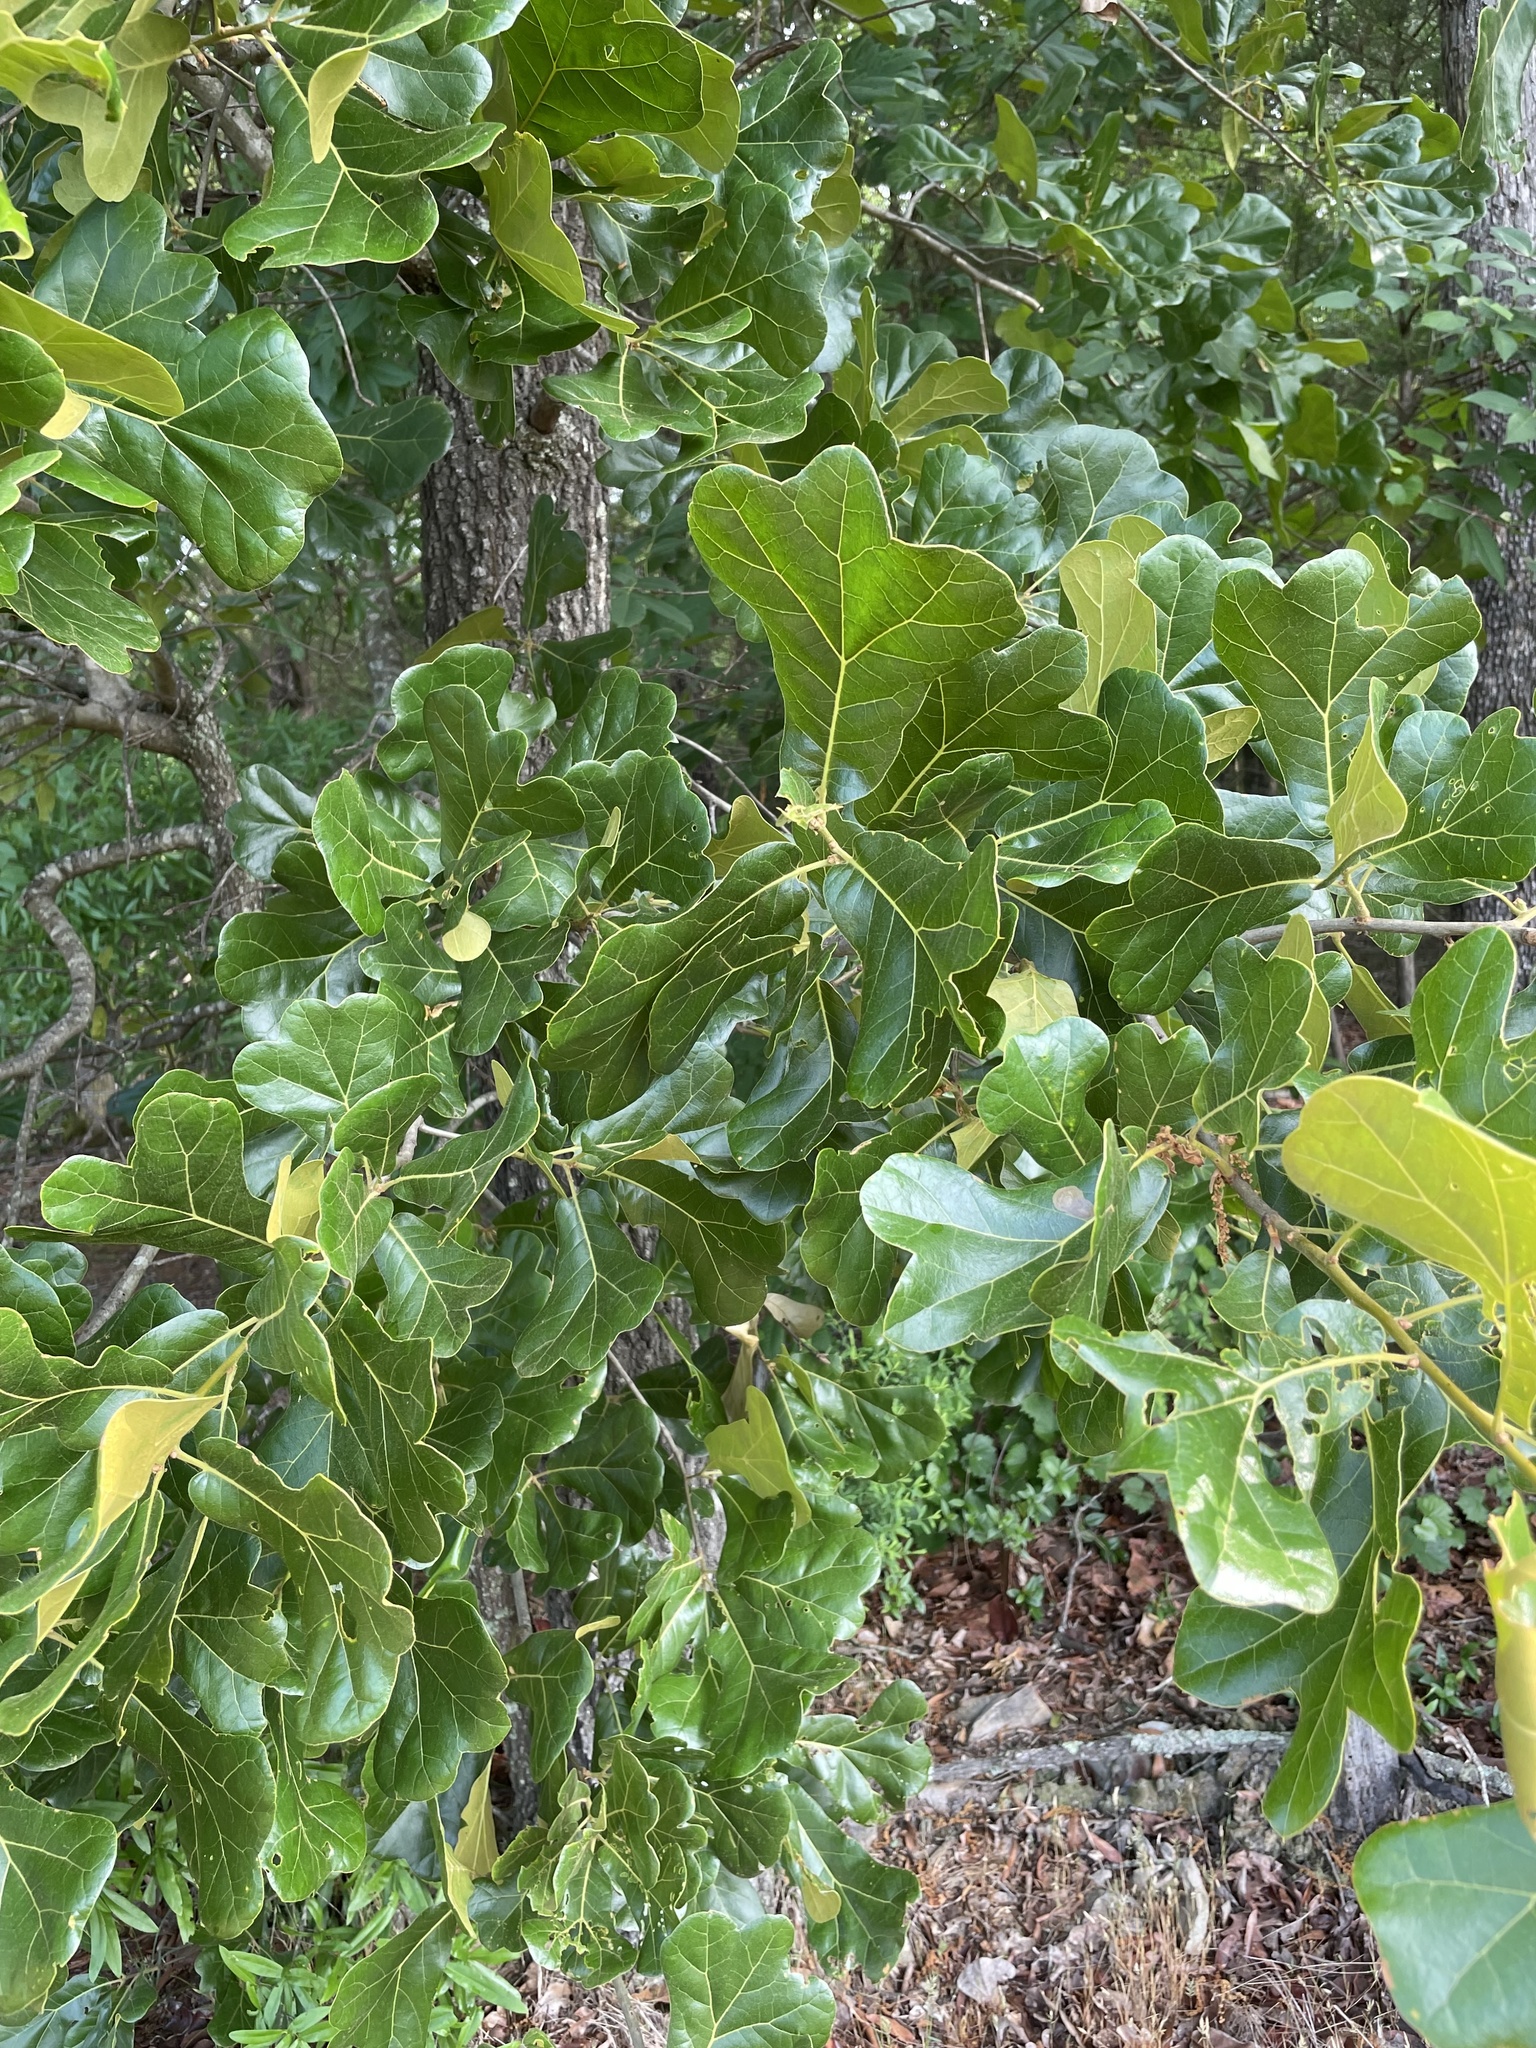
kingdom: Plantae
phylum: Tracheophyta
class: Magnoliopsida
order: Fagales
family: Fagaceae
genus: Quercus
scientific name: Quercus marilandica
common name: Blackjack oak
